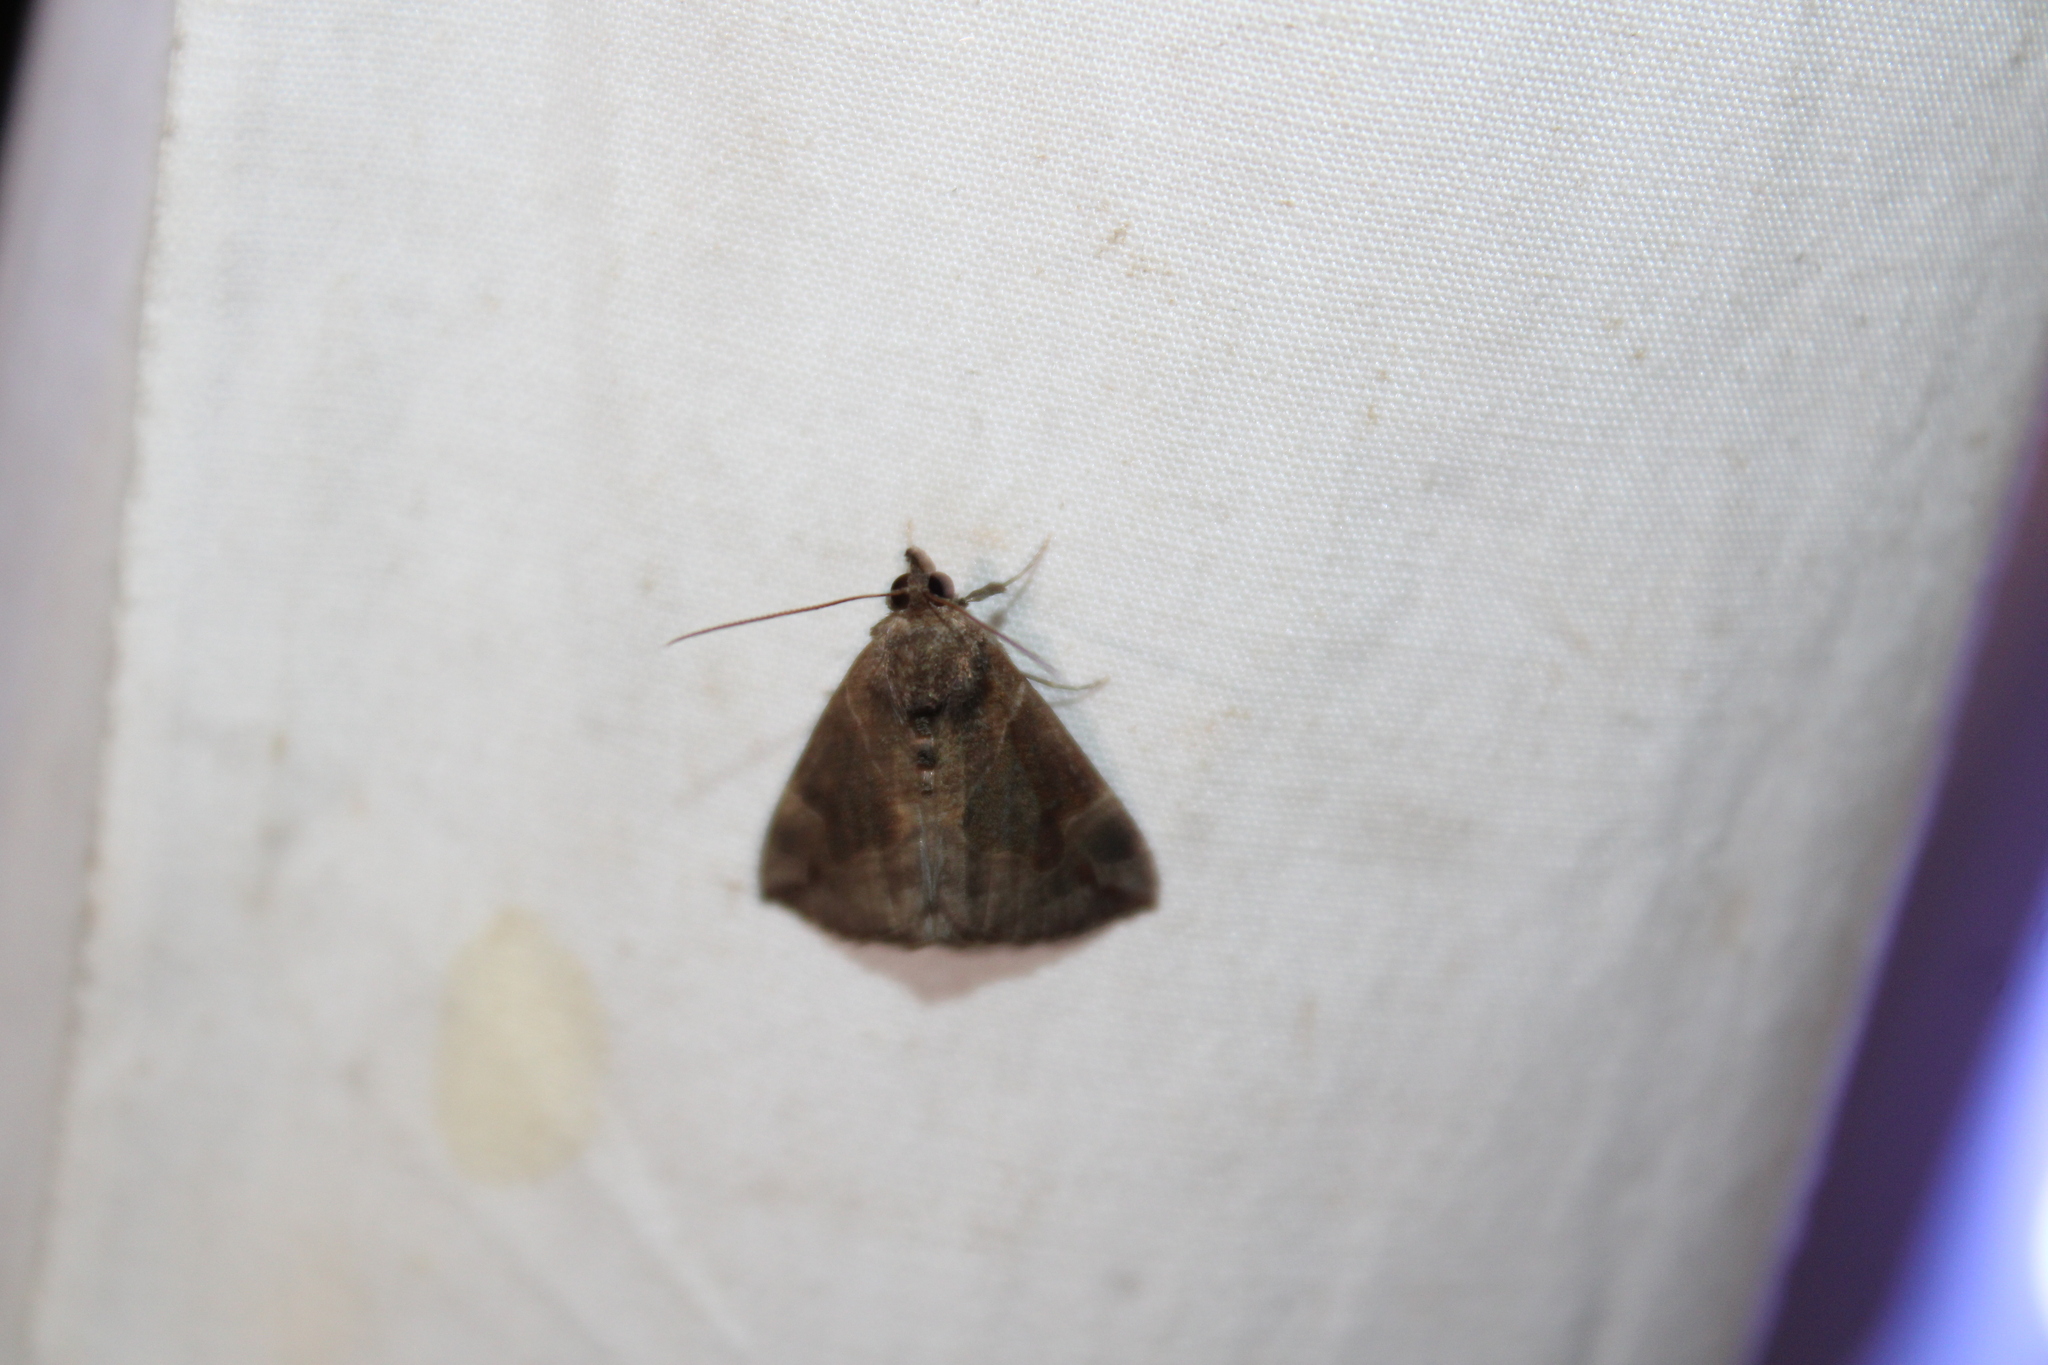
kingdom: Animalia
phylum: Arthropoda
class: Insecta
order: Lepidoptera
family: Erebidae
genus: Hypena
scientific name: Hypena manalis
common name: Flowing-line bomolocha moth
